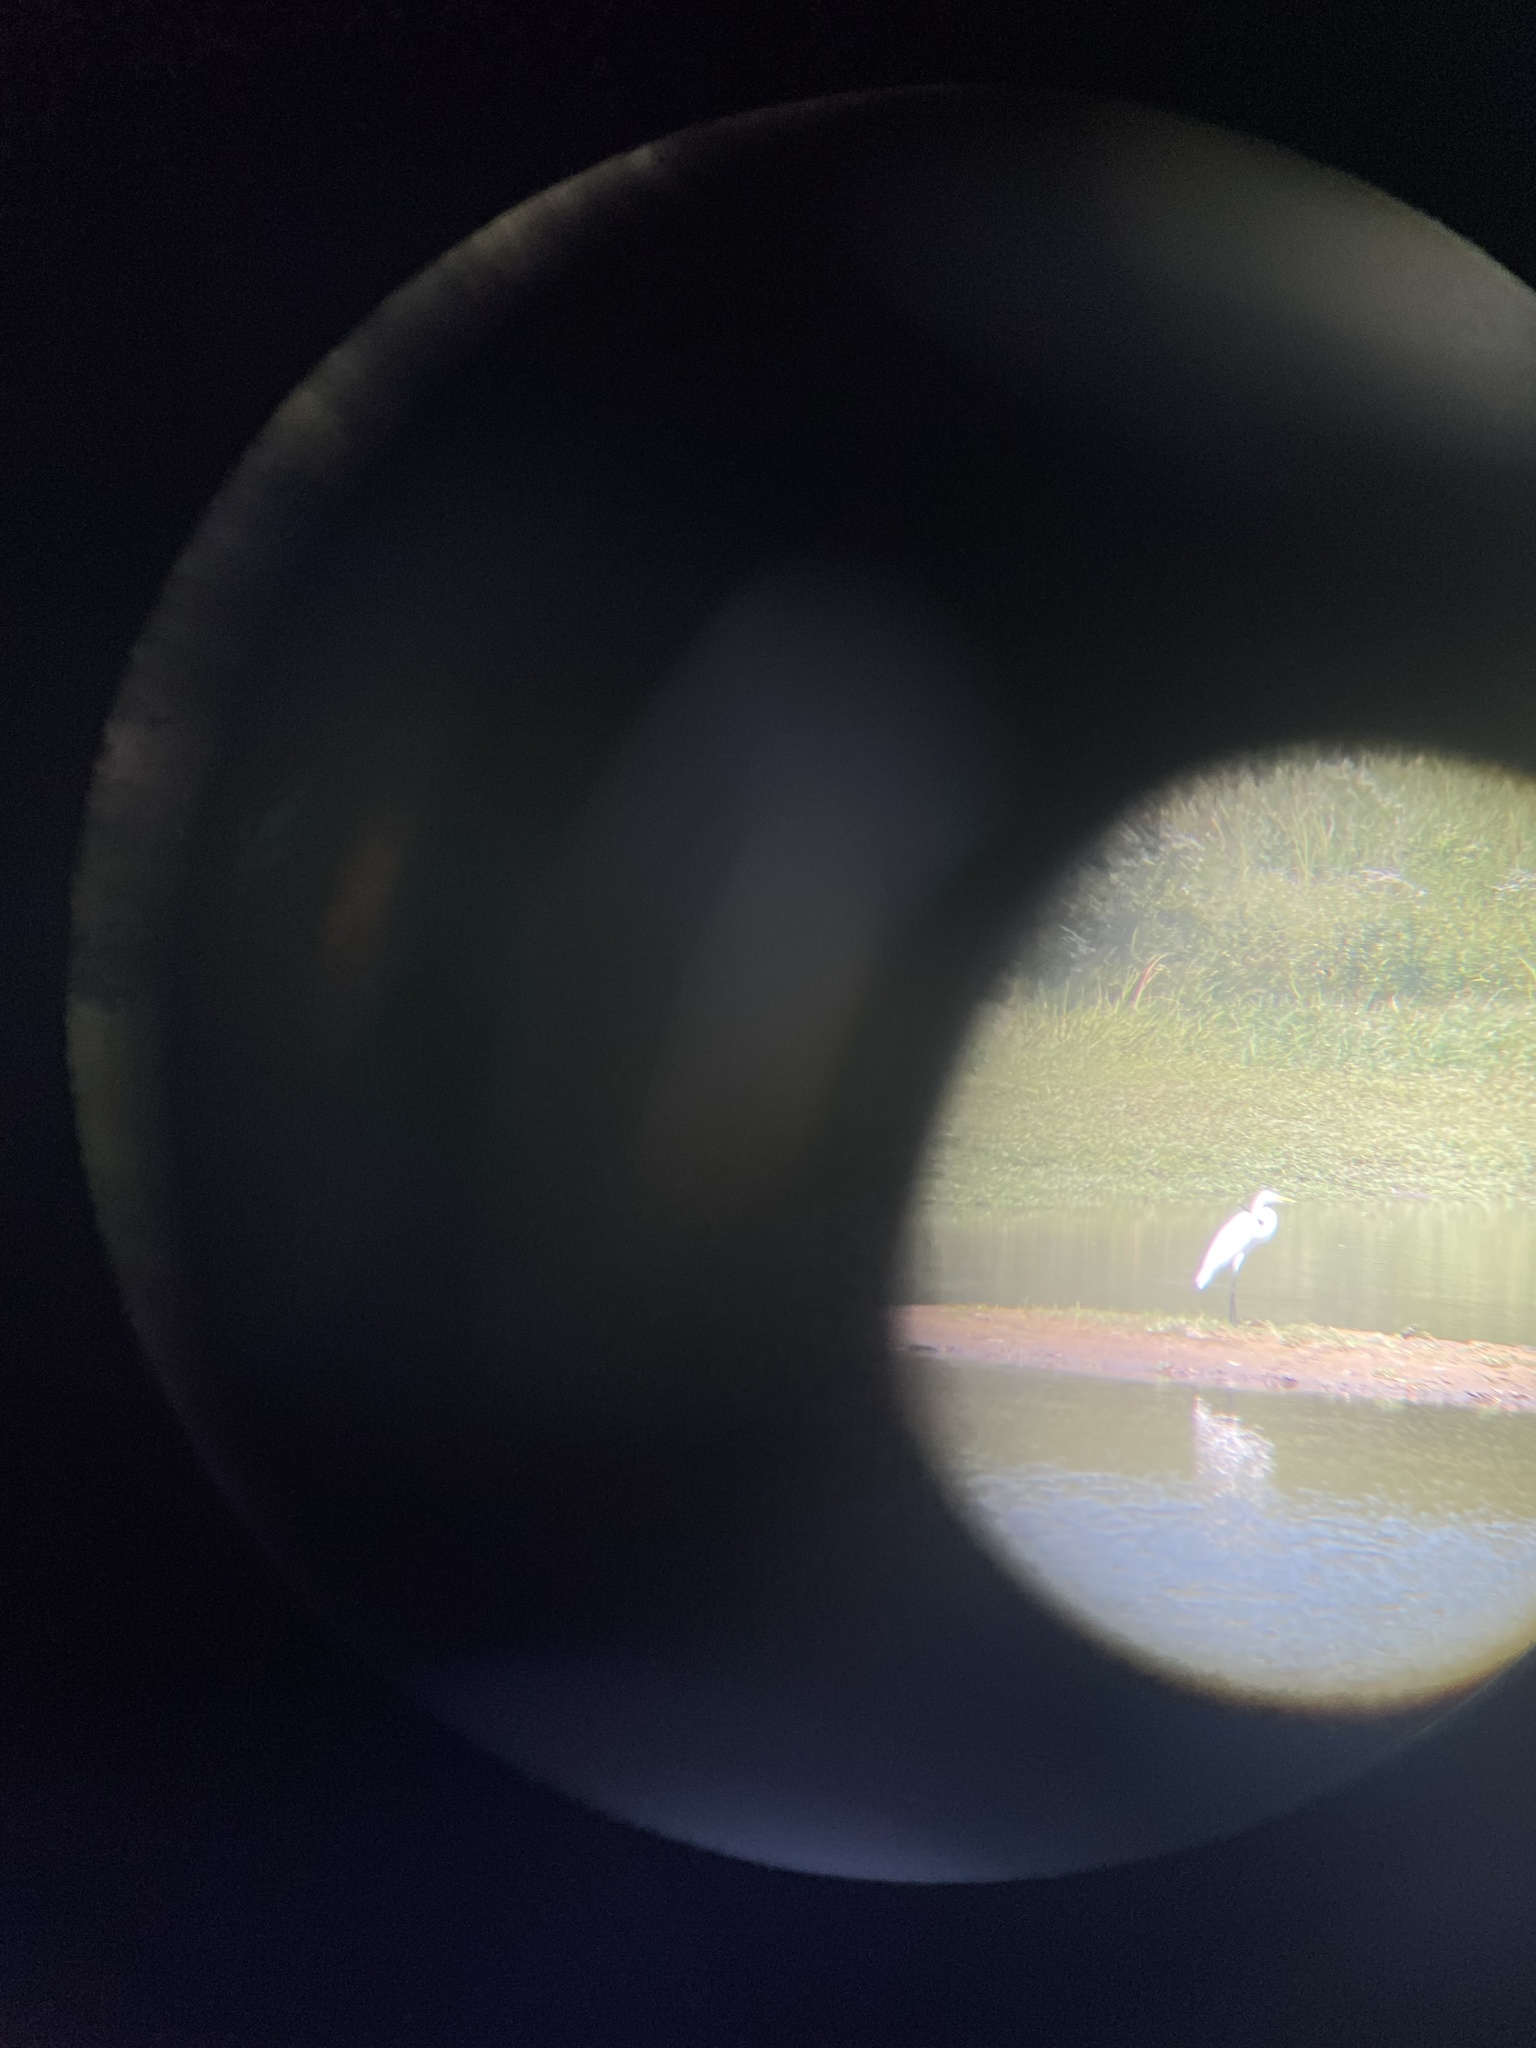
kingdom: Animalia
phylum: Chordata
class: Aves
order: Pelecaniformes
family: Ardeidae
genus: Ardea
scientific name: Ardea alba
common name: Great egret
